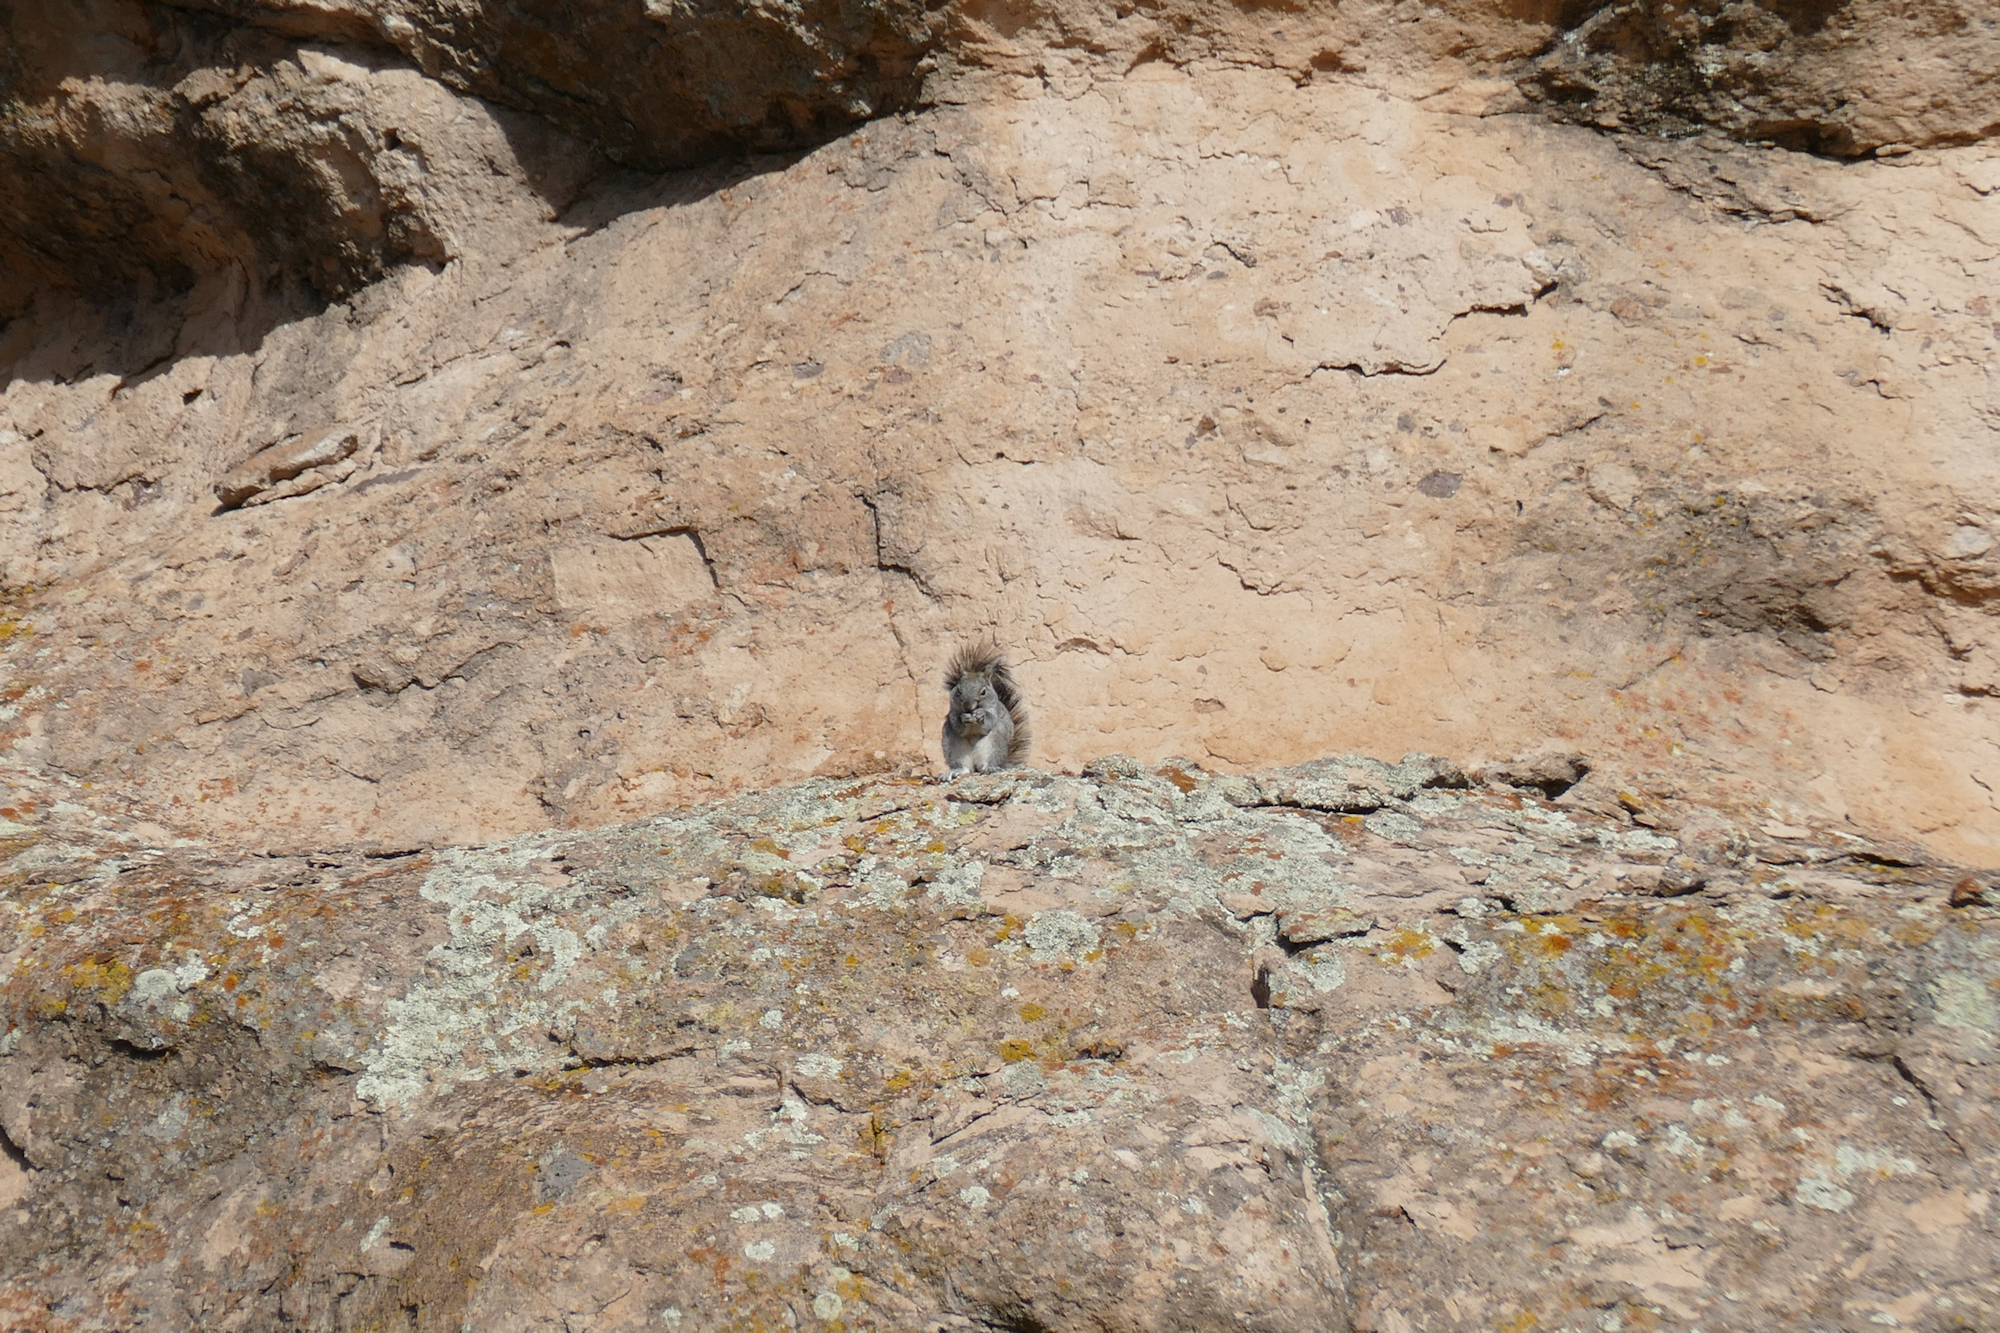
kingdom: Animalia
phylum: Chordata
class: Mammalia
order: Rodentia
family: Sciuridae
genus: Sciurus
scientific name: Sciurus arizonensis
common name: Arizona gray squirrel
